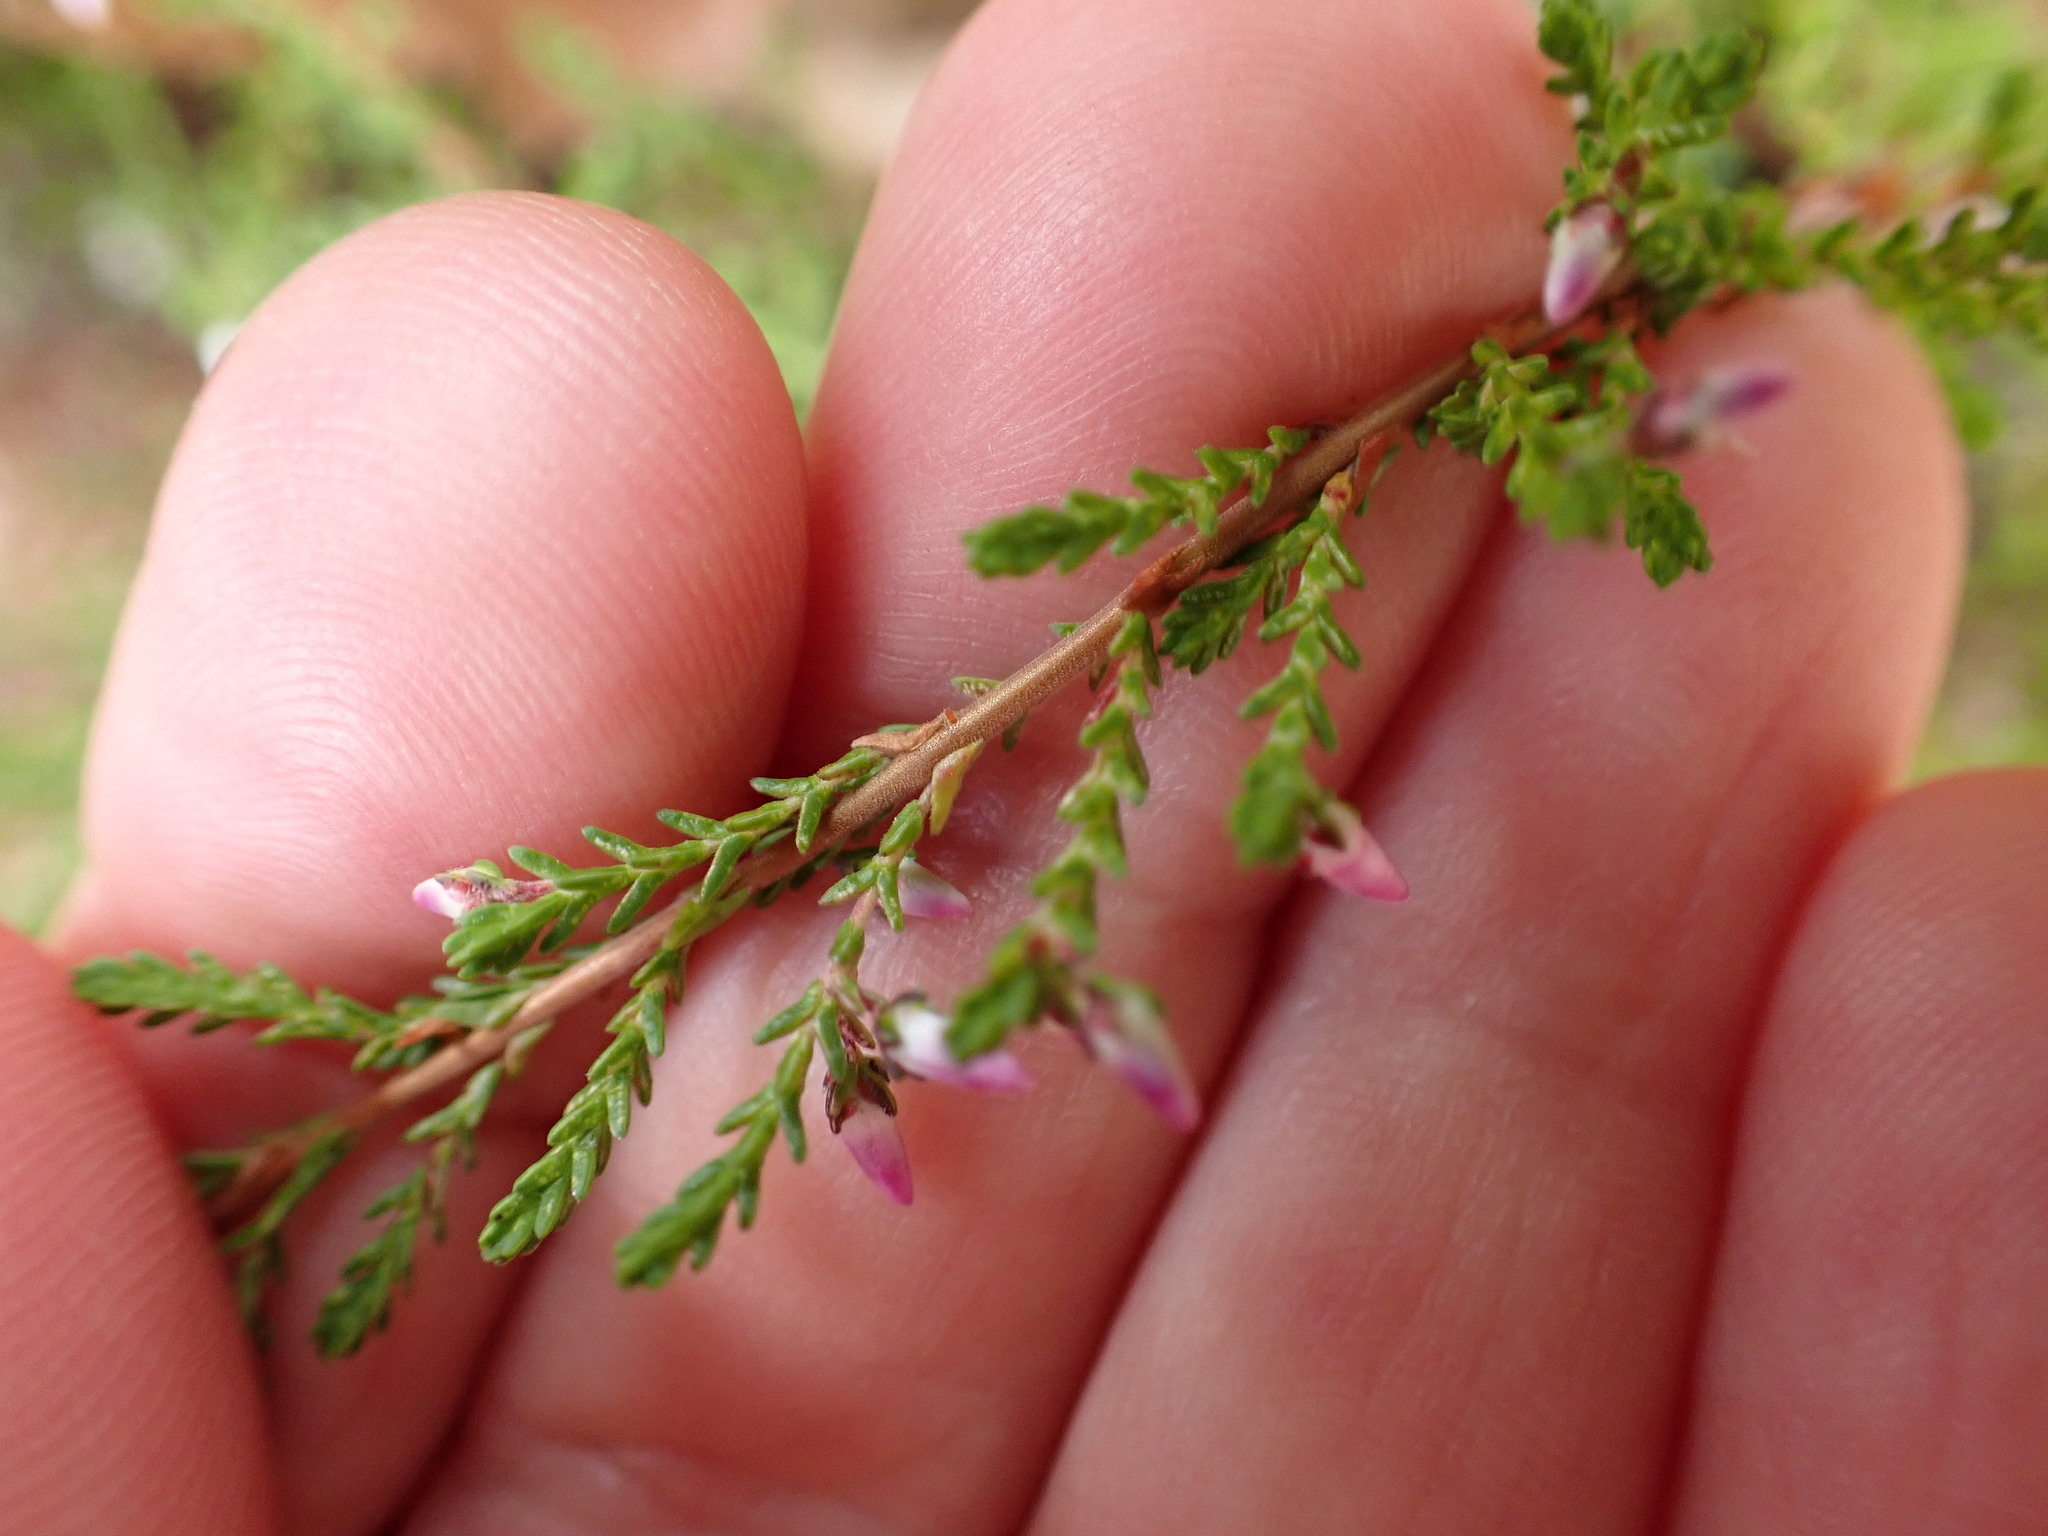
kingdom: Plantae
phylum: Tracheophyta
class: Magnoliopsida
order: Ericales
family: Ericaceae
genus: Calluna
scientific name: Calluna vulgaris
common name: Heather
